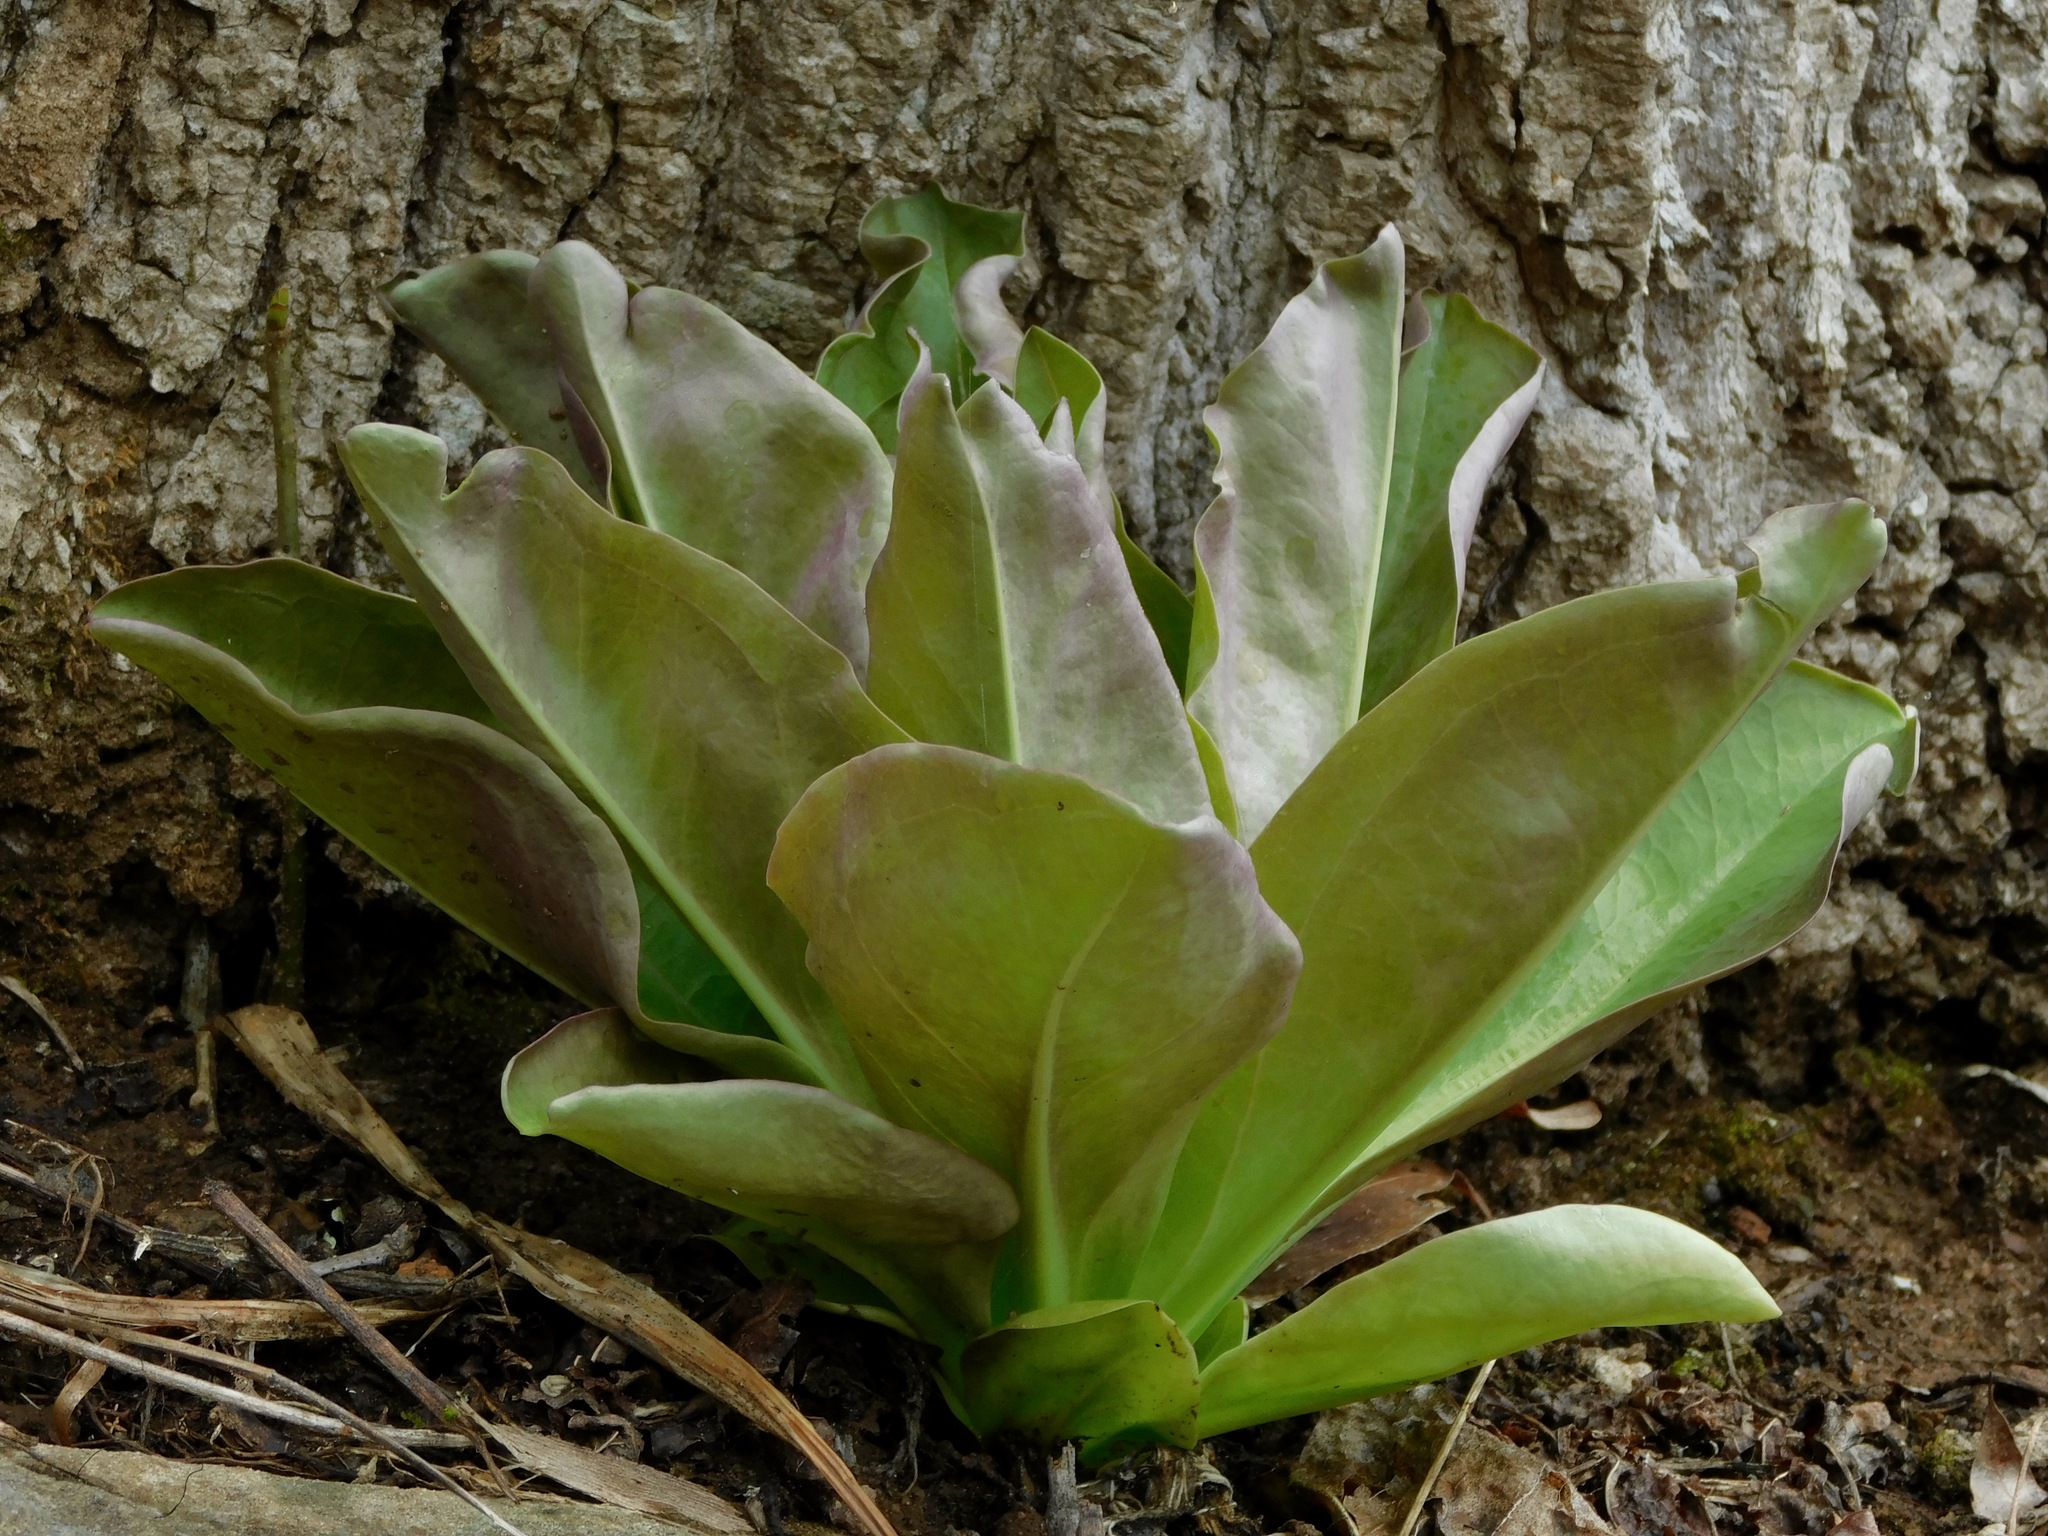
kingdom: Plantae
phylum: Tracheophyta
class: Magnoliopsida
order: Gentianales
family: Gentianaceae
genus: Frasera
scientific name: Frasera caroliniensis
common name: American columbo
